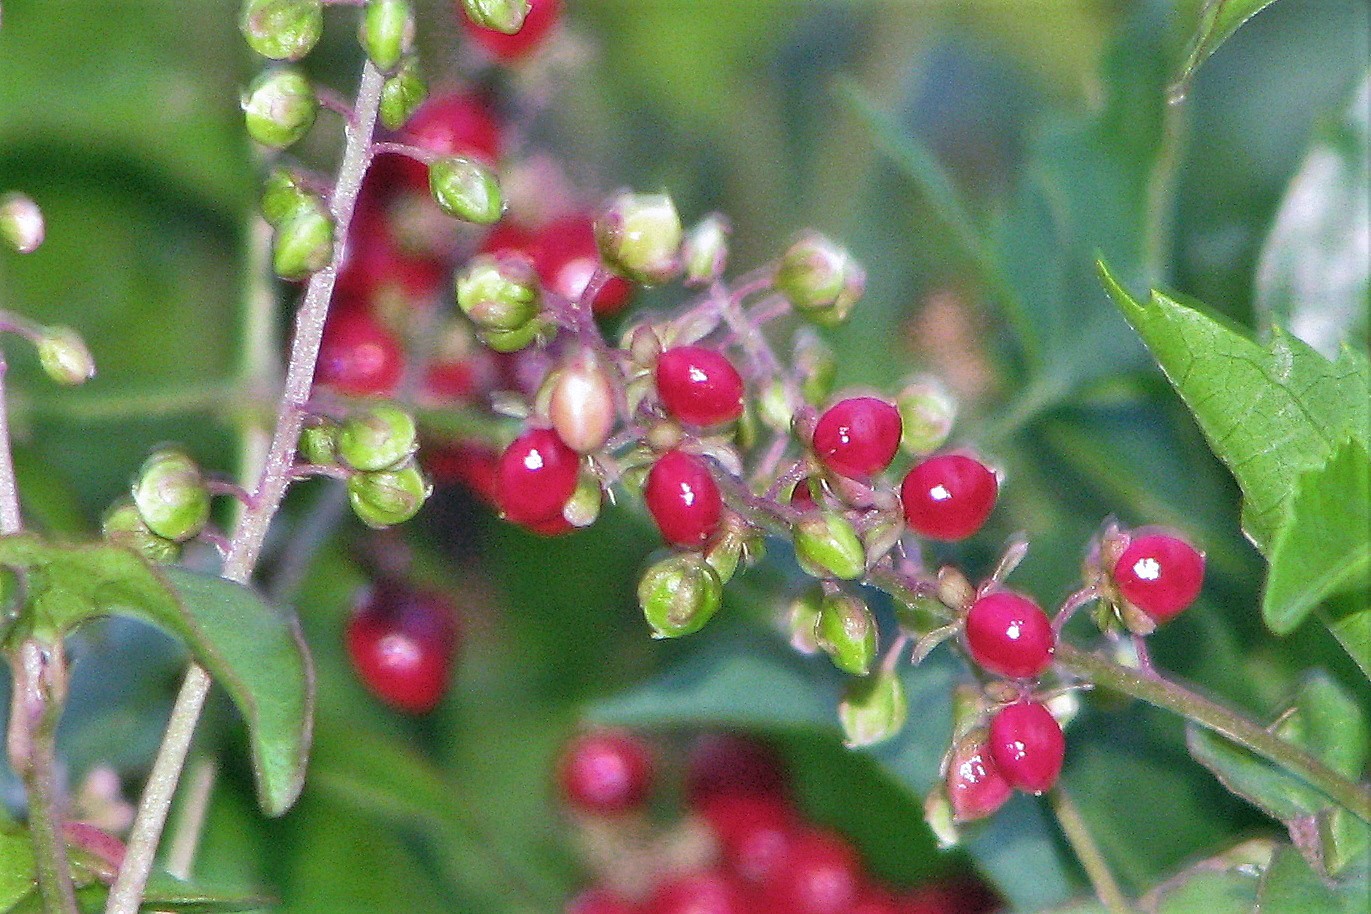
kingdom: Plantae
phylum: Tracheophyta
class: Magnoliopsida
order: Caryophyllales
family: Phytolaccaceae
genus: Rivina
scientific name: Rivina humilis
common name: Rougeplant
